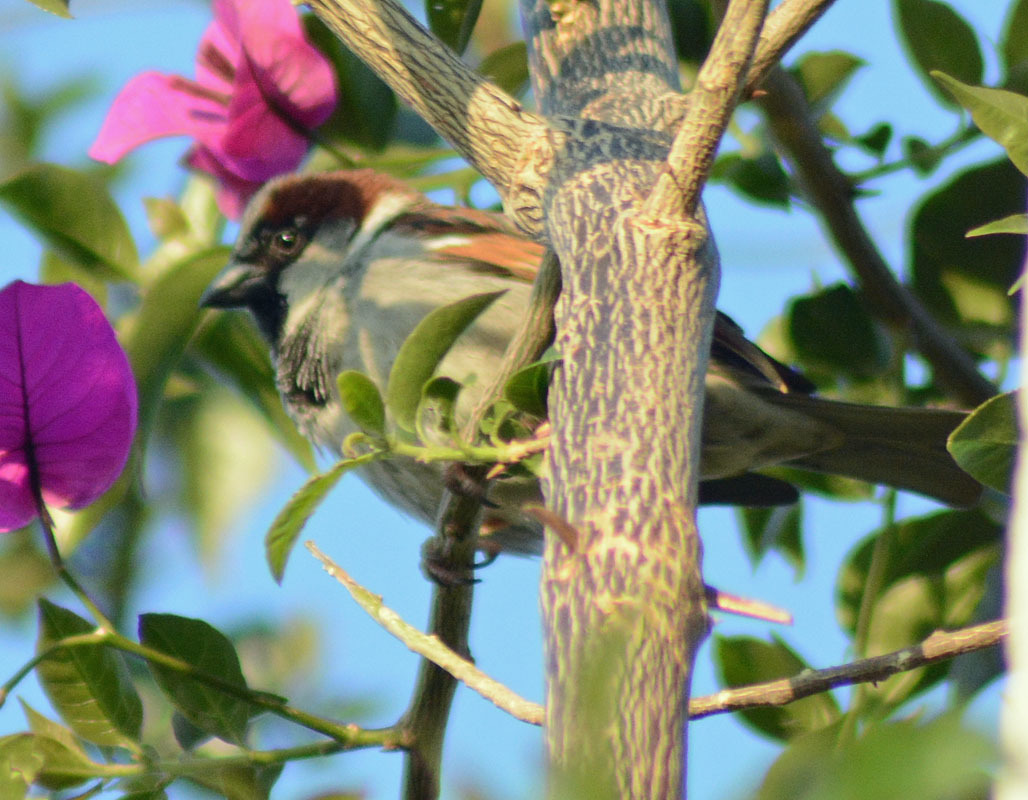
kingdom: Animalia
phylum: Chordata
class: Aves
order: Passeriformes
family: Passeridae
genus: Passer
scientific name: Passer domesticus
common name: House sparrow
